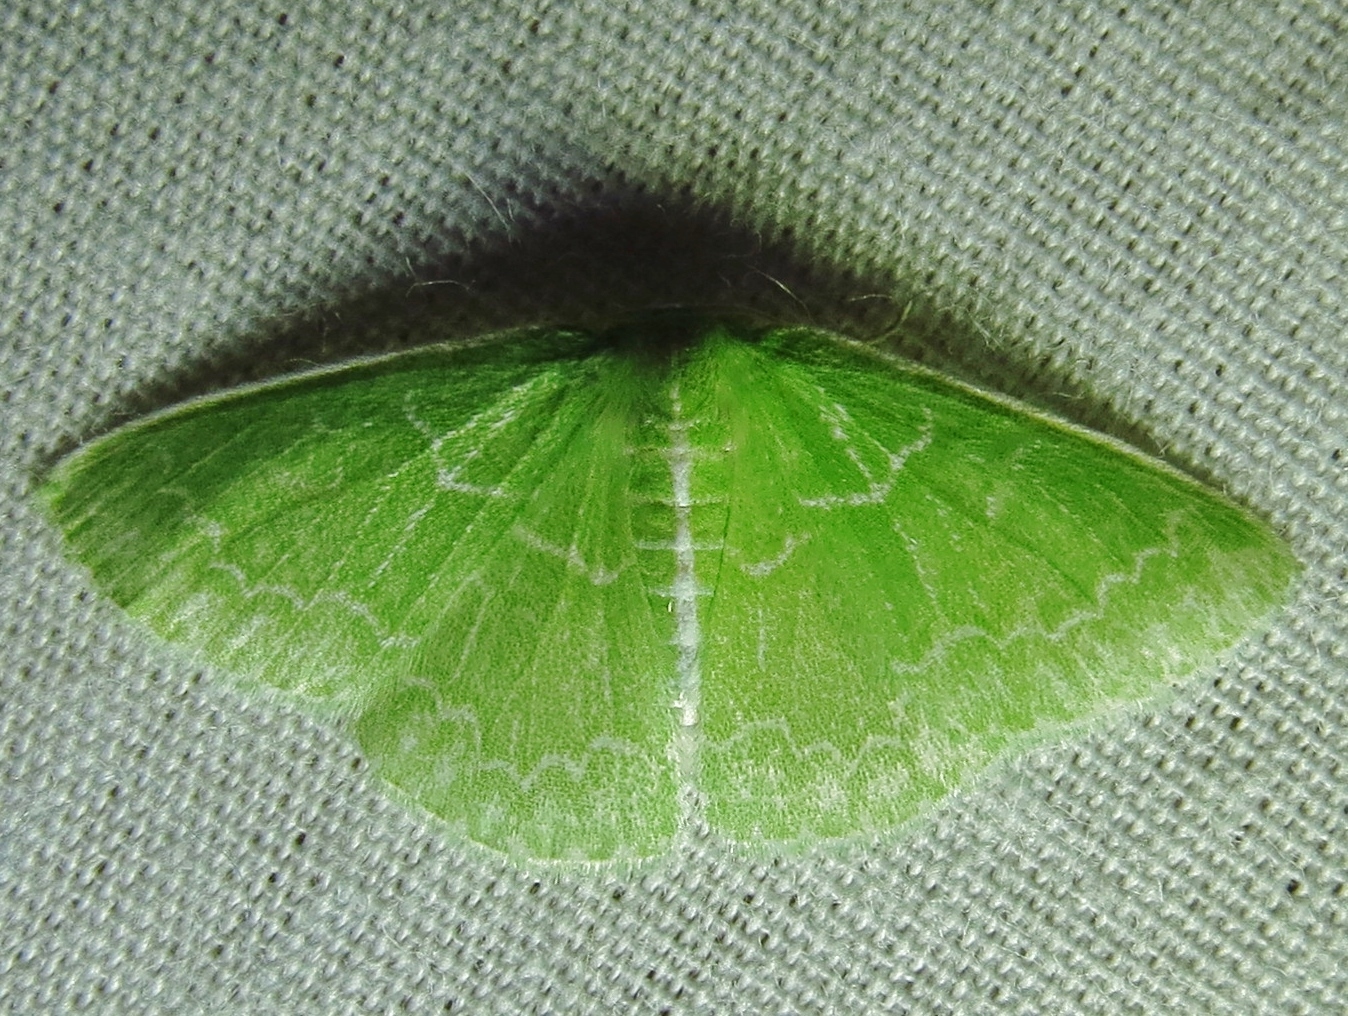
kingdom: Animalia
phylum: Arthropoda
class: Insecta
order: Lepidoptera
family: Geometridae
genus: Synchlora
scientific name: Synchlora frondaria
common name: Southern emerald
